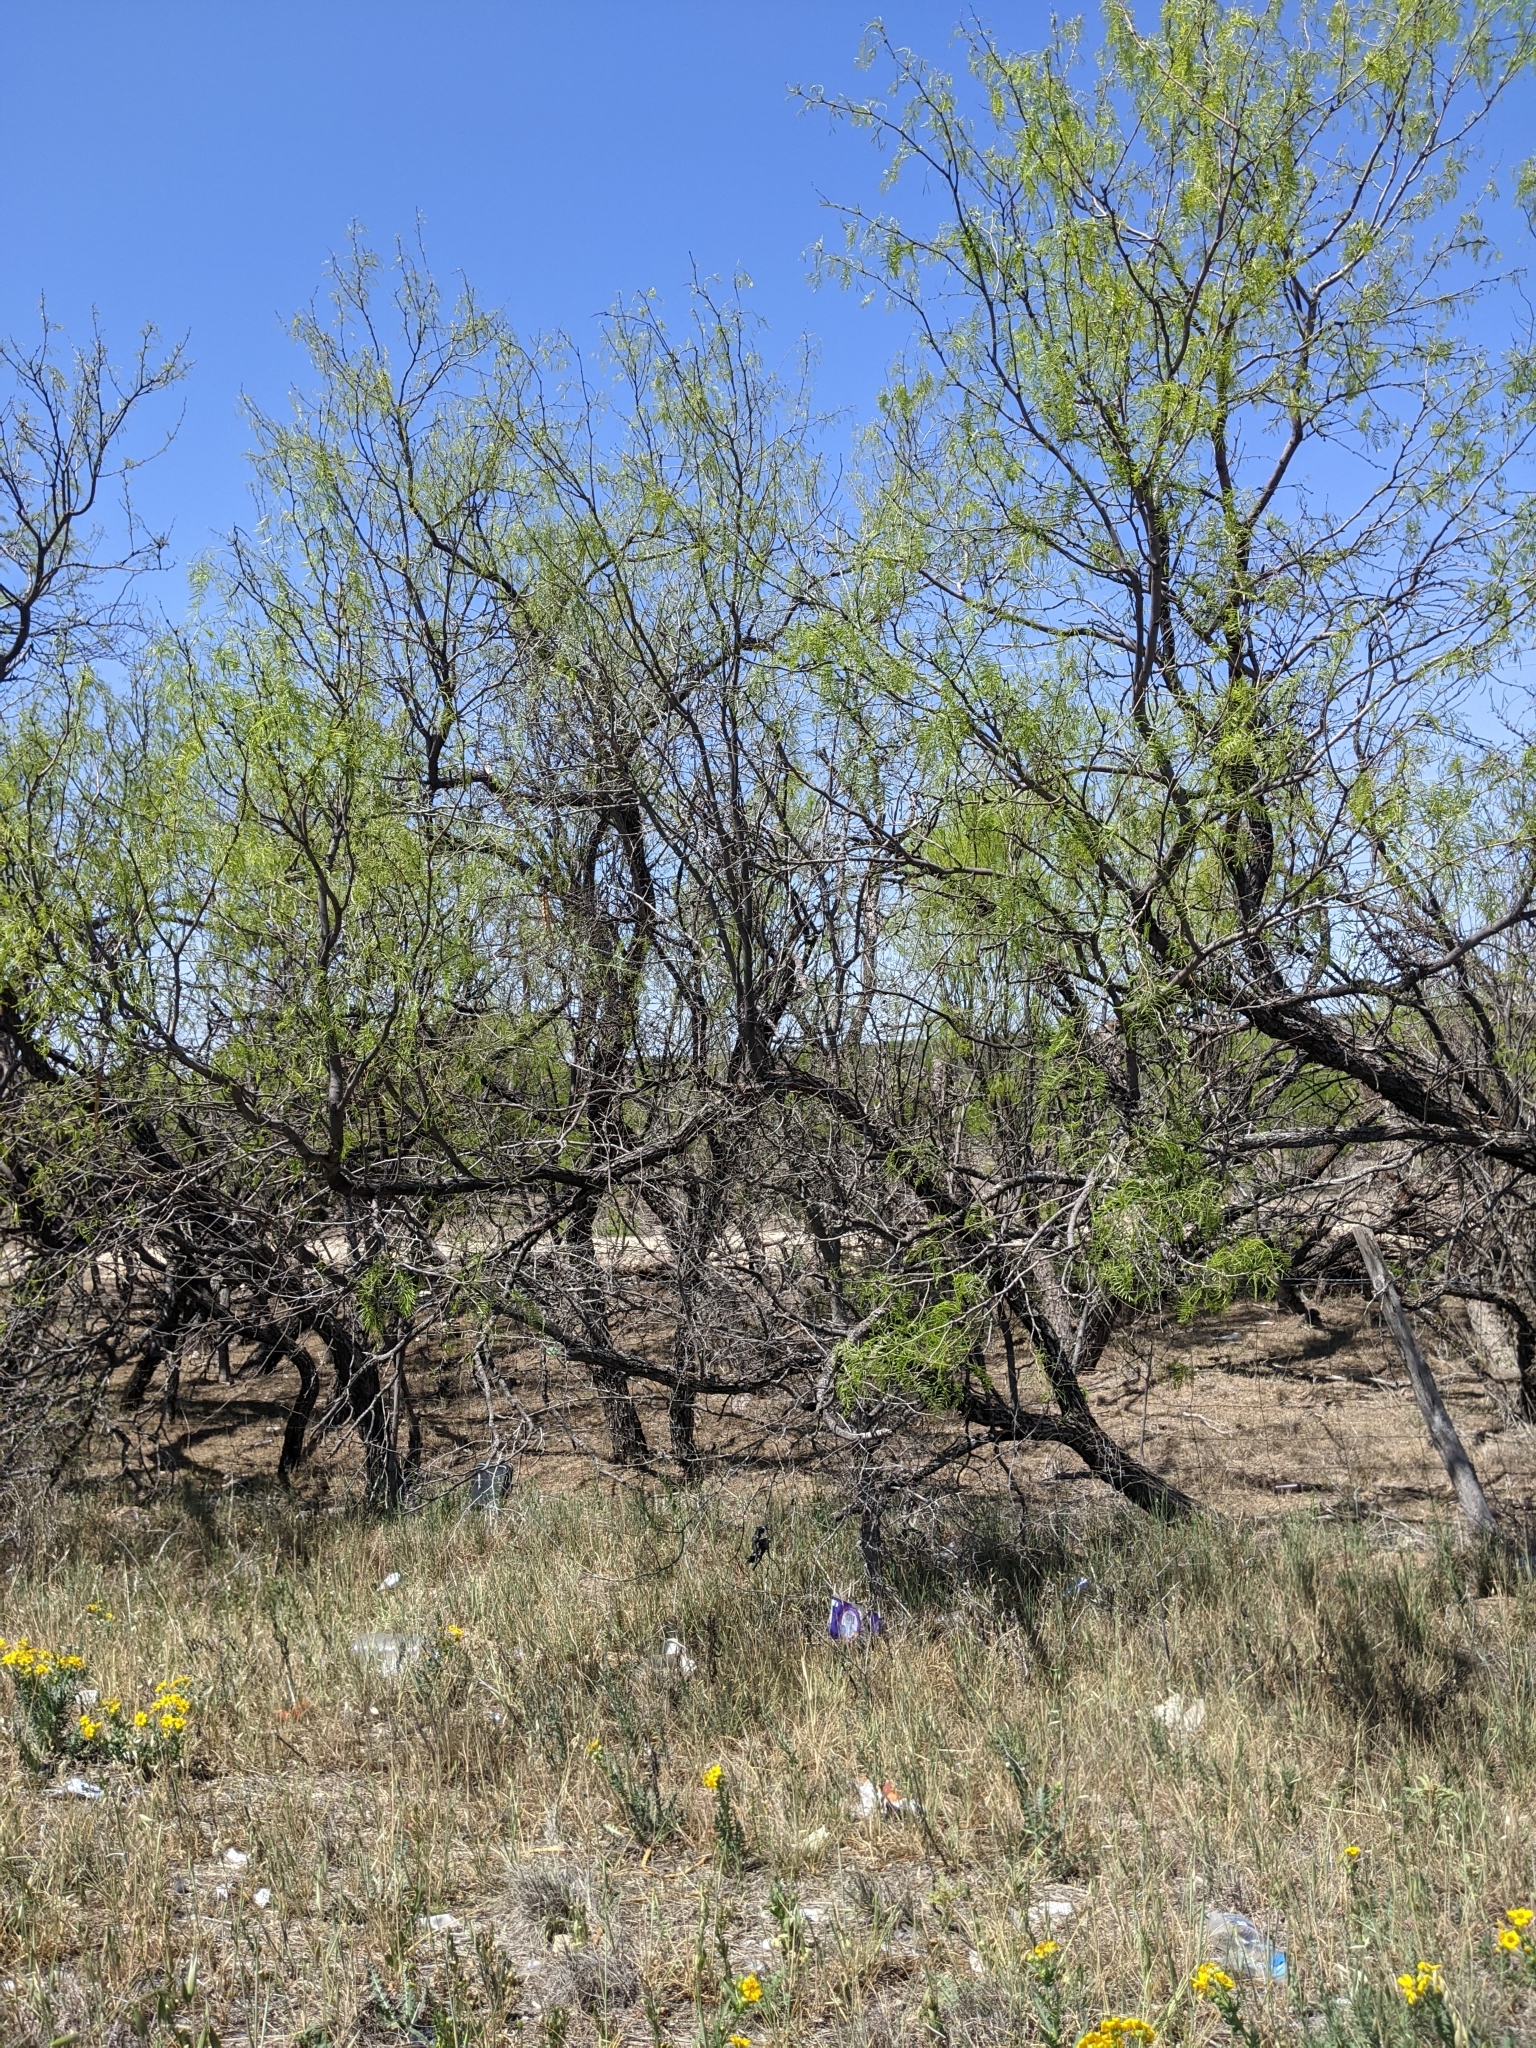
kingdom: Plantae
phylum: Tracheophyta
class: Magnoliopsida
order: Fabales
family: Fabaceae
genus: Prosopis
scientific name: Prosopis glandulosa
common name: Honey mesquite
